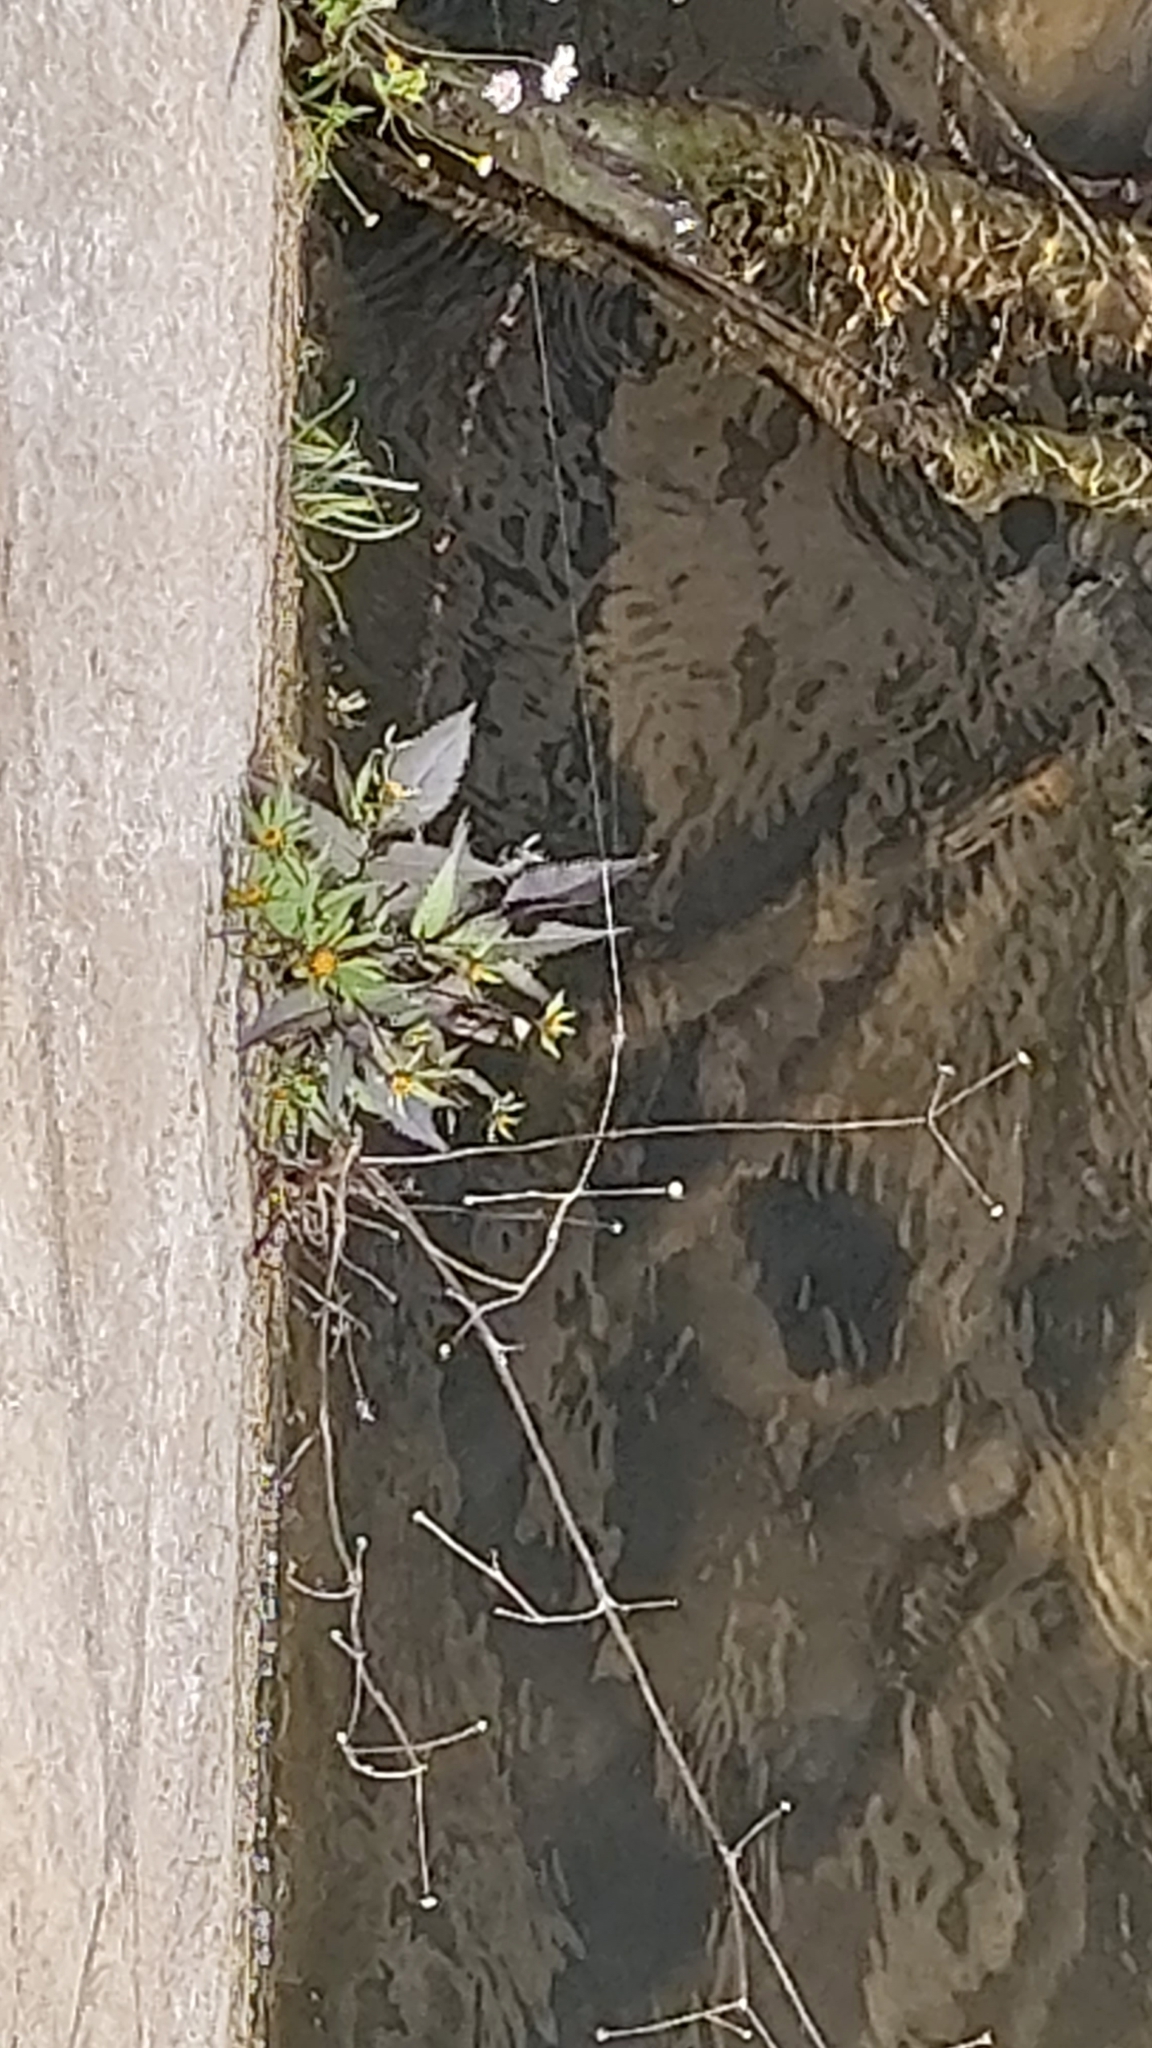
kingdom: Plantae
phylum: Tracheophyta
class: Liliopsida
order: Alismatales
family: Hydrocharitaceae
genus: Lagarosiphon
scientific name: Lagarosiphon major
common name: Curly waterweed
